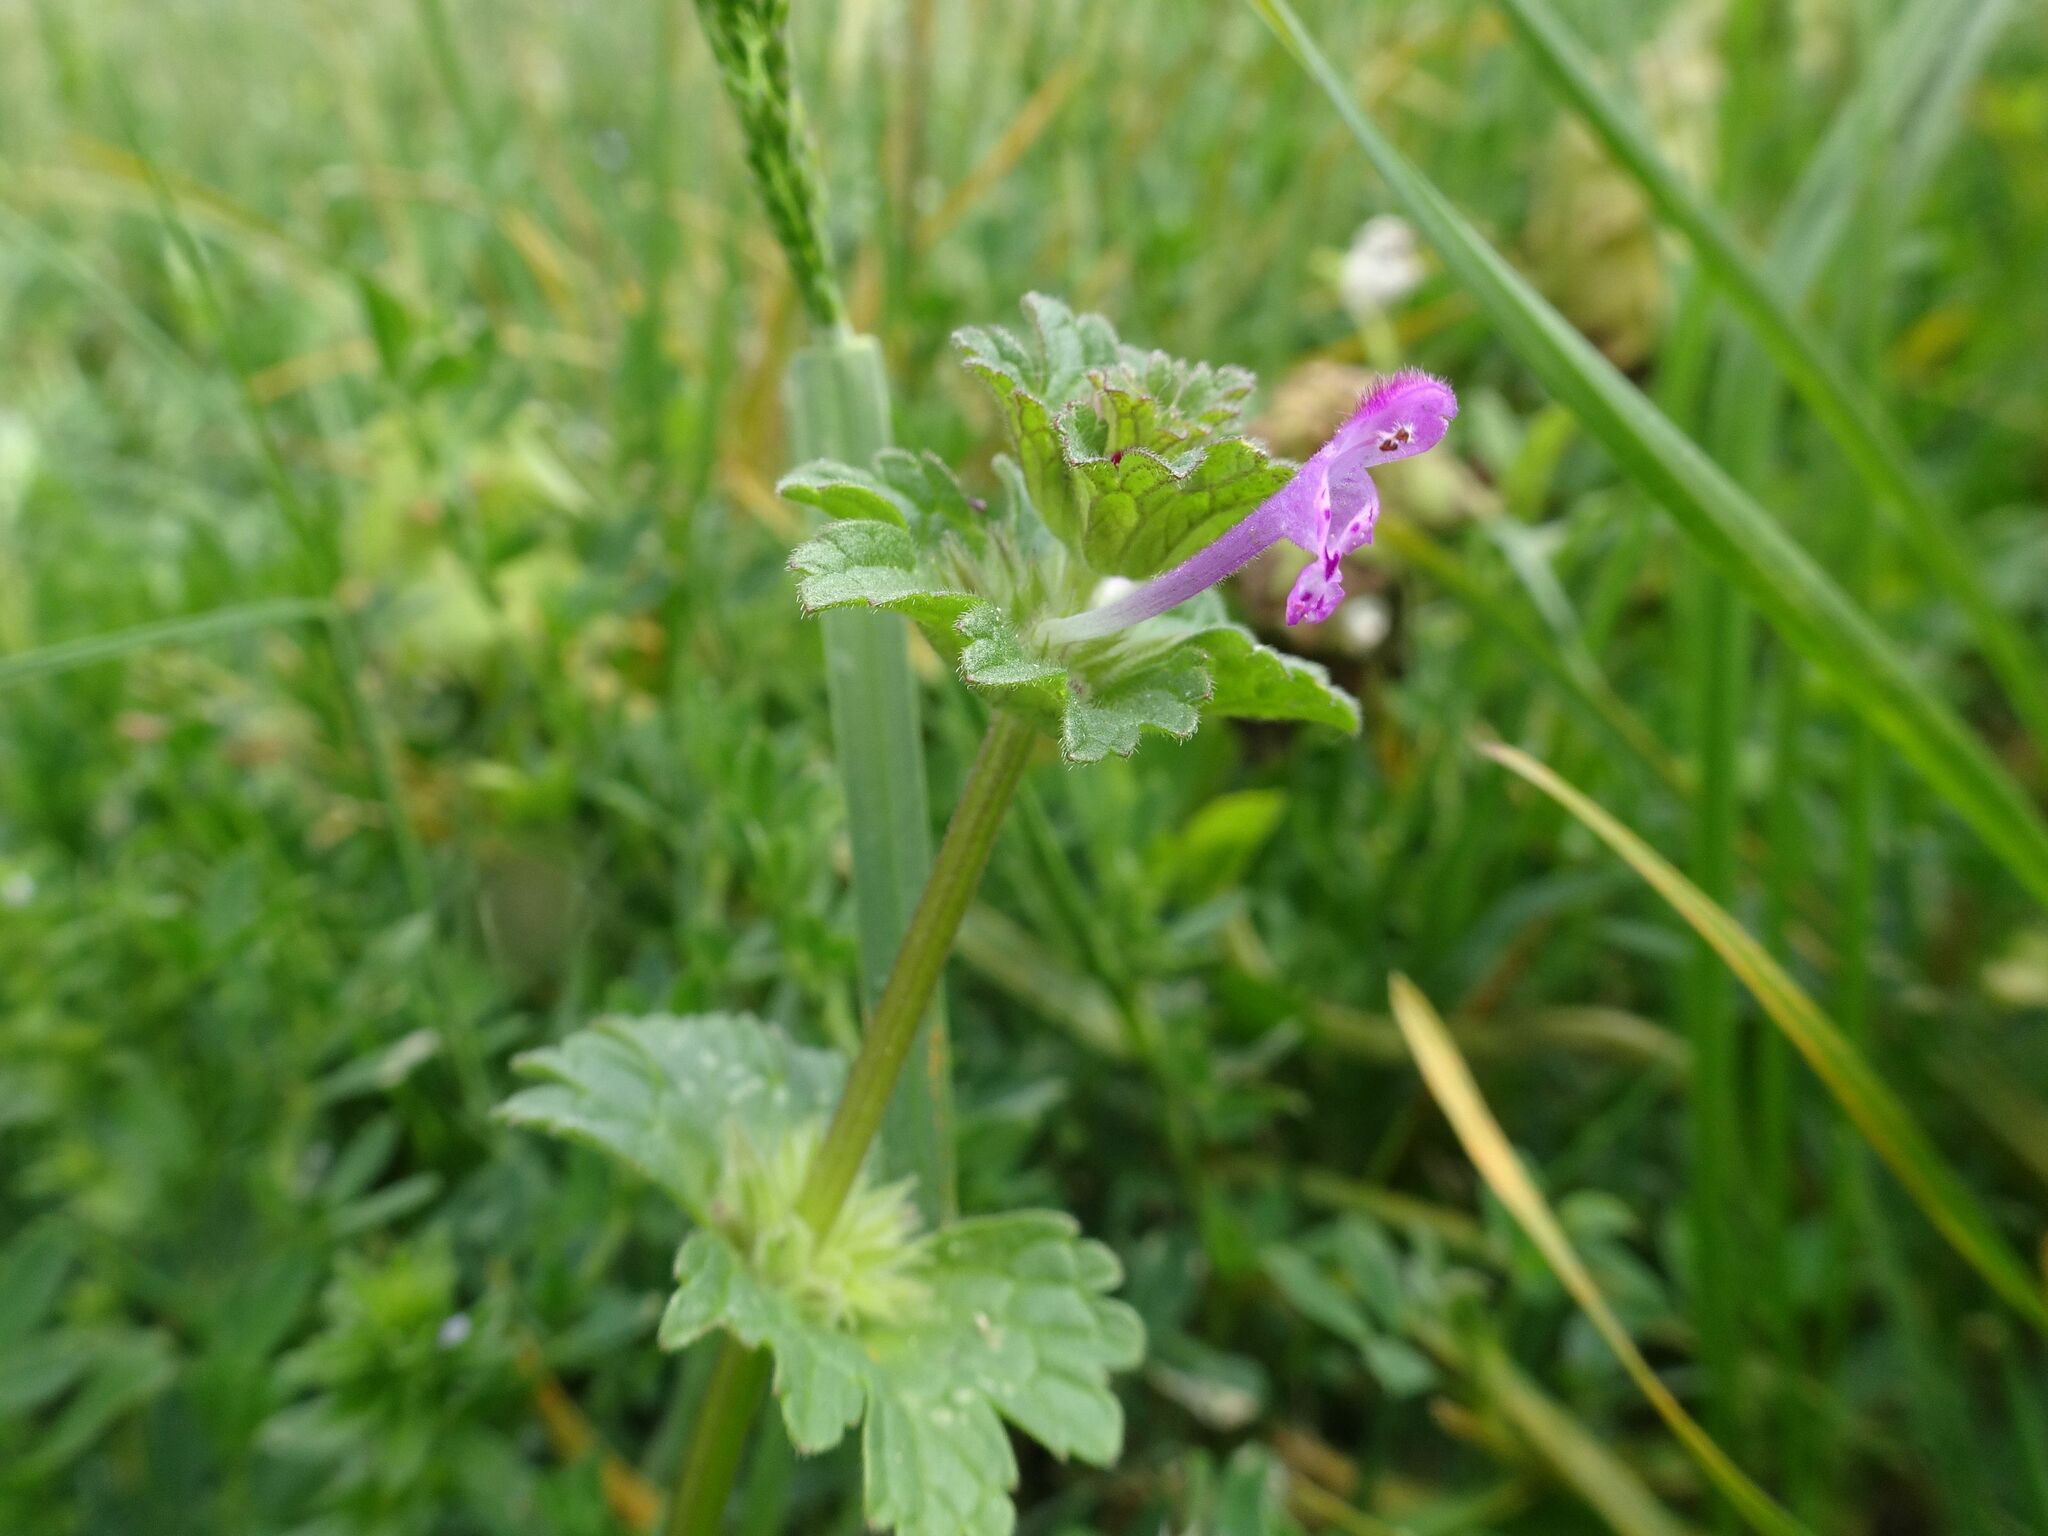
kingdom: Plantae
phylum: Tracheophyta
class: Magnoliopsida
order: Lamiales
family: Lamiaceae
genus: Lamium
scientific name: Lamium amplexicaule
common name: Henbit dead-nettle
